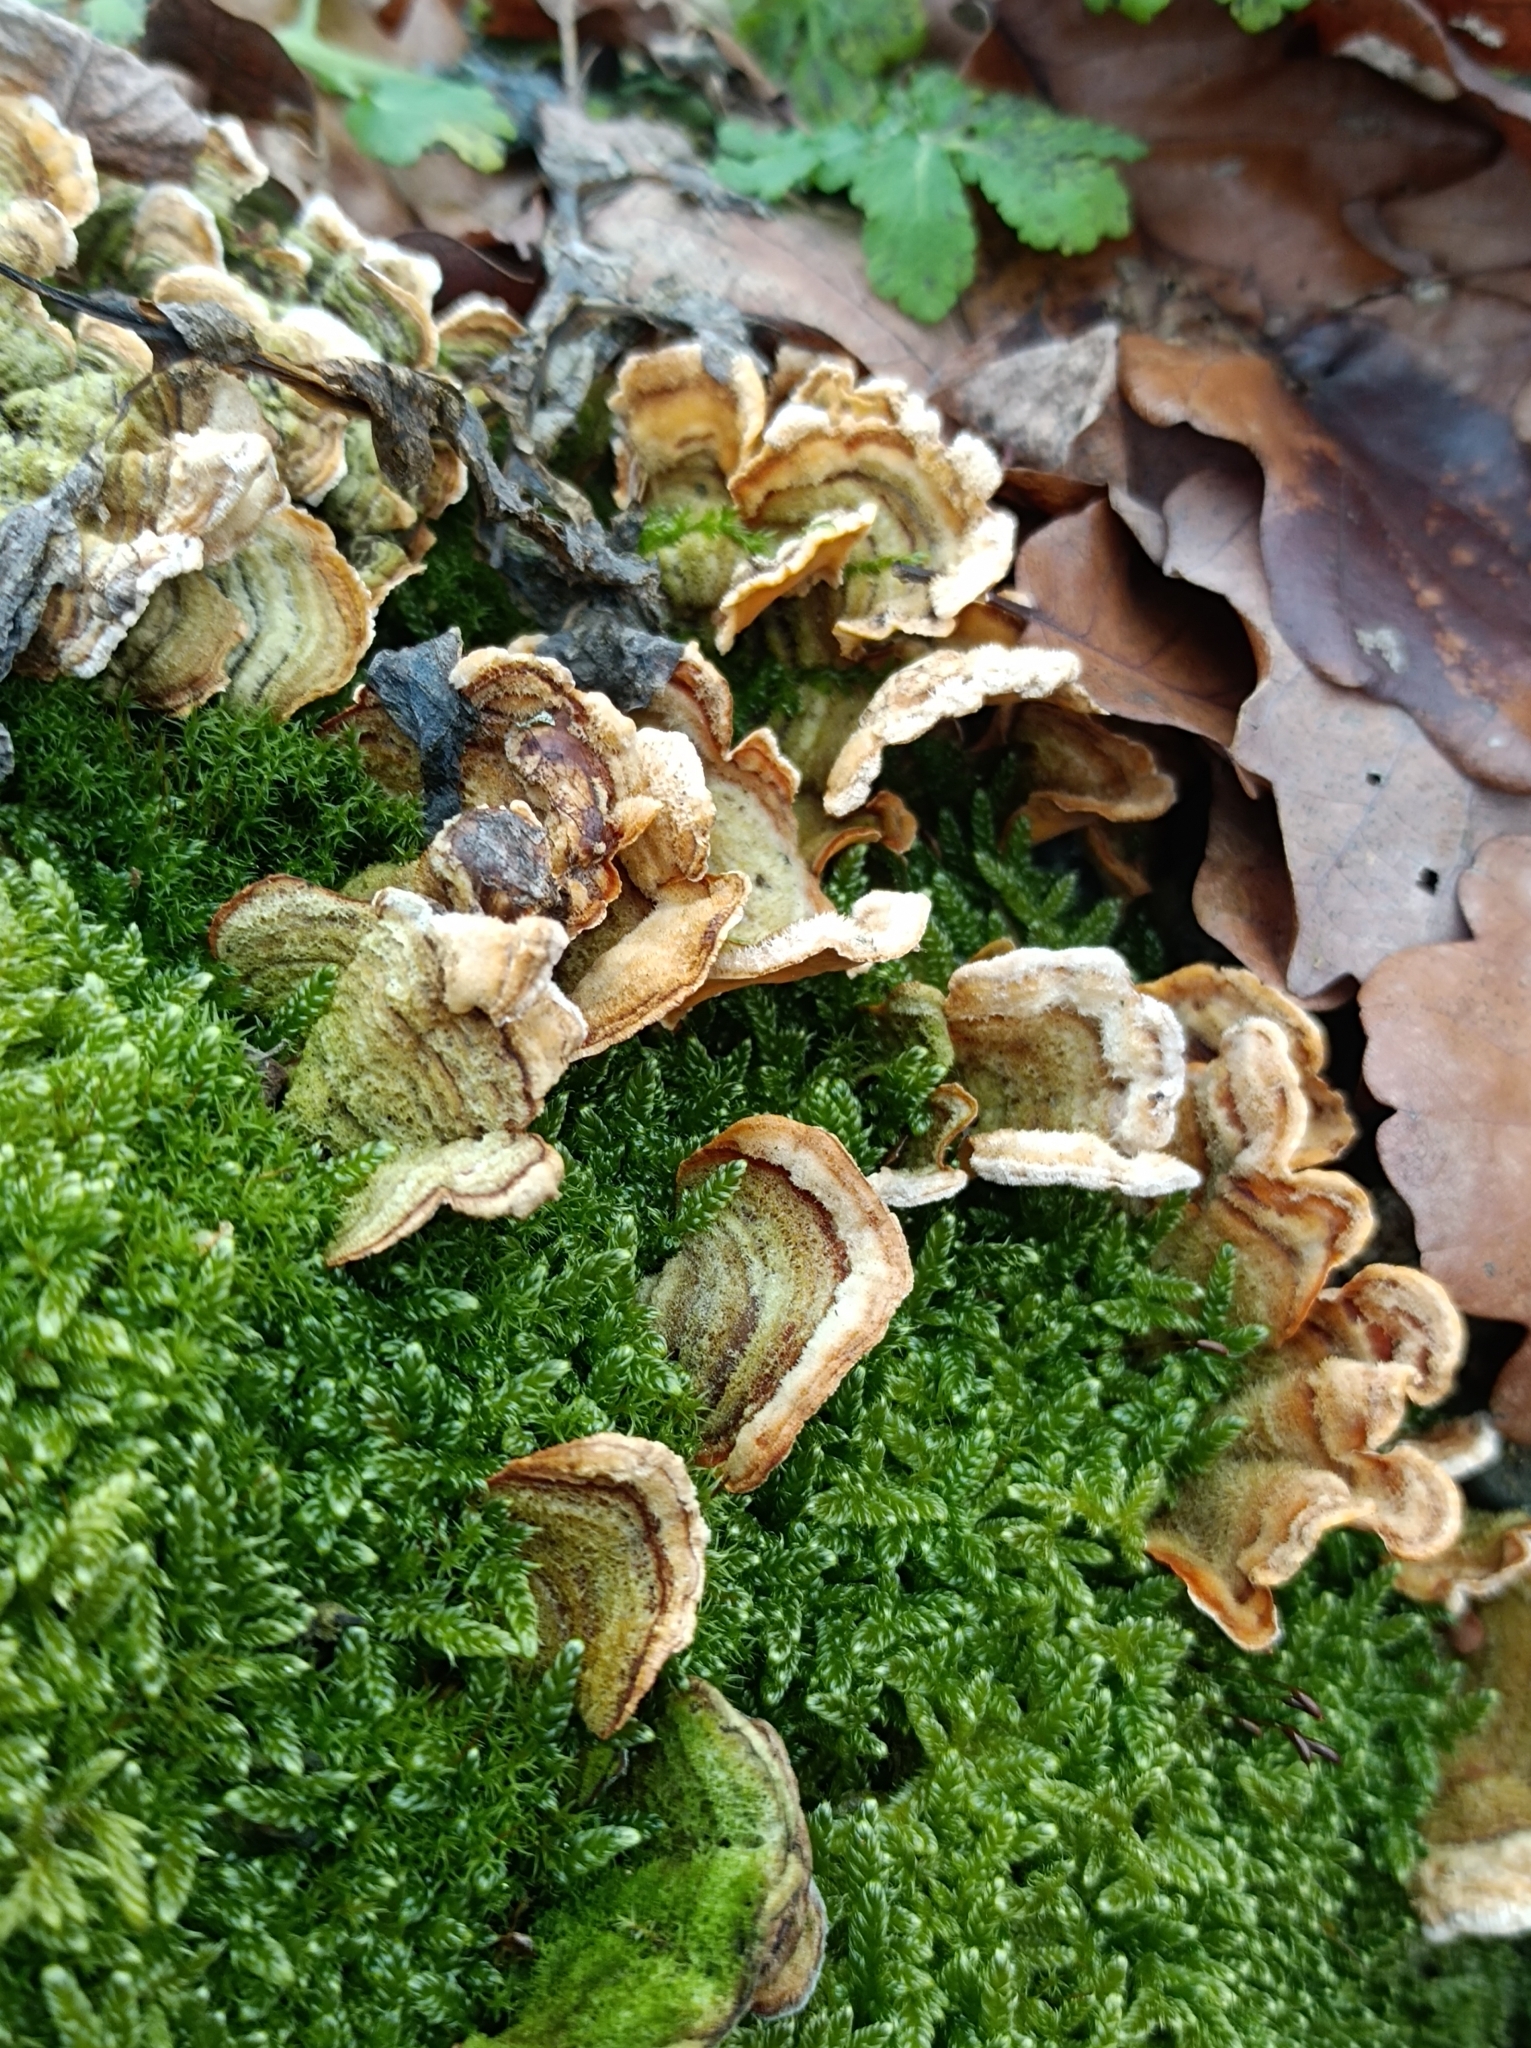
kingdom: Fungi
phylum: Basidiomycota
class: Agaricomycetes
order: Russulales
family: Stereaceae
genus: Stereum
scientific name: Stereum hirsutum
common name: Hairy curtain crust
